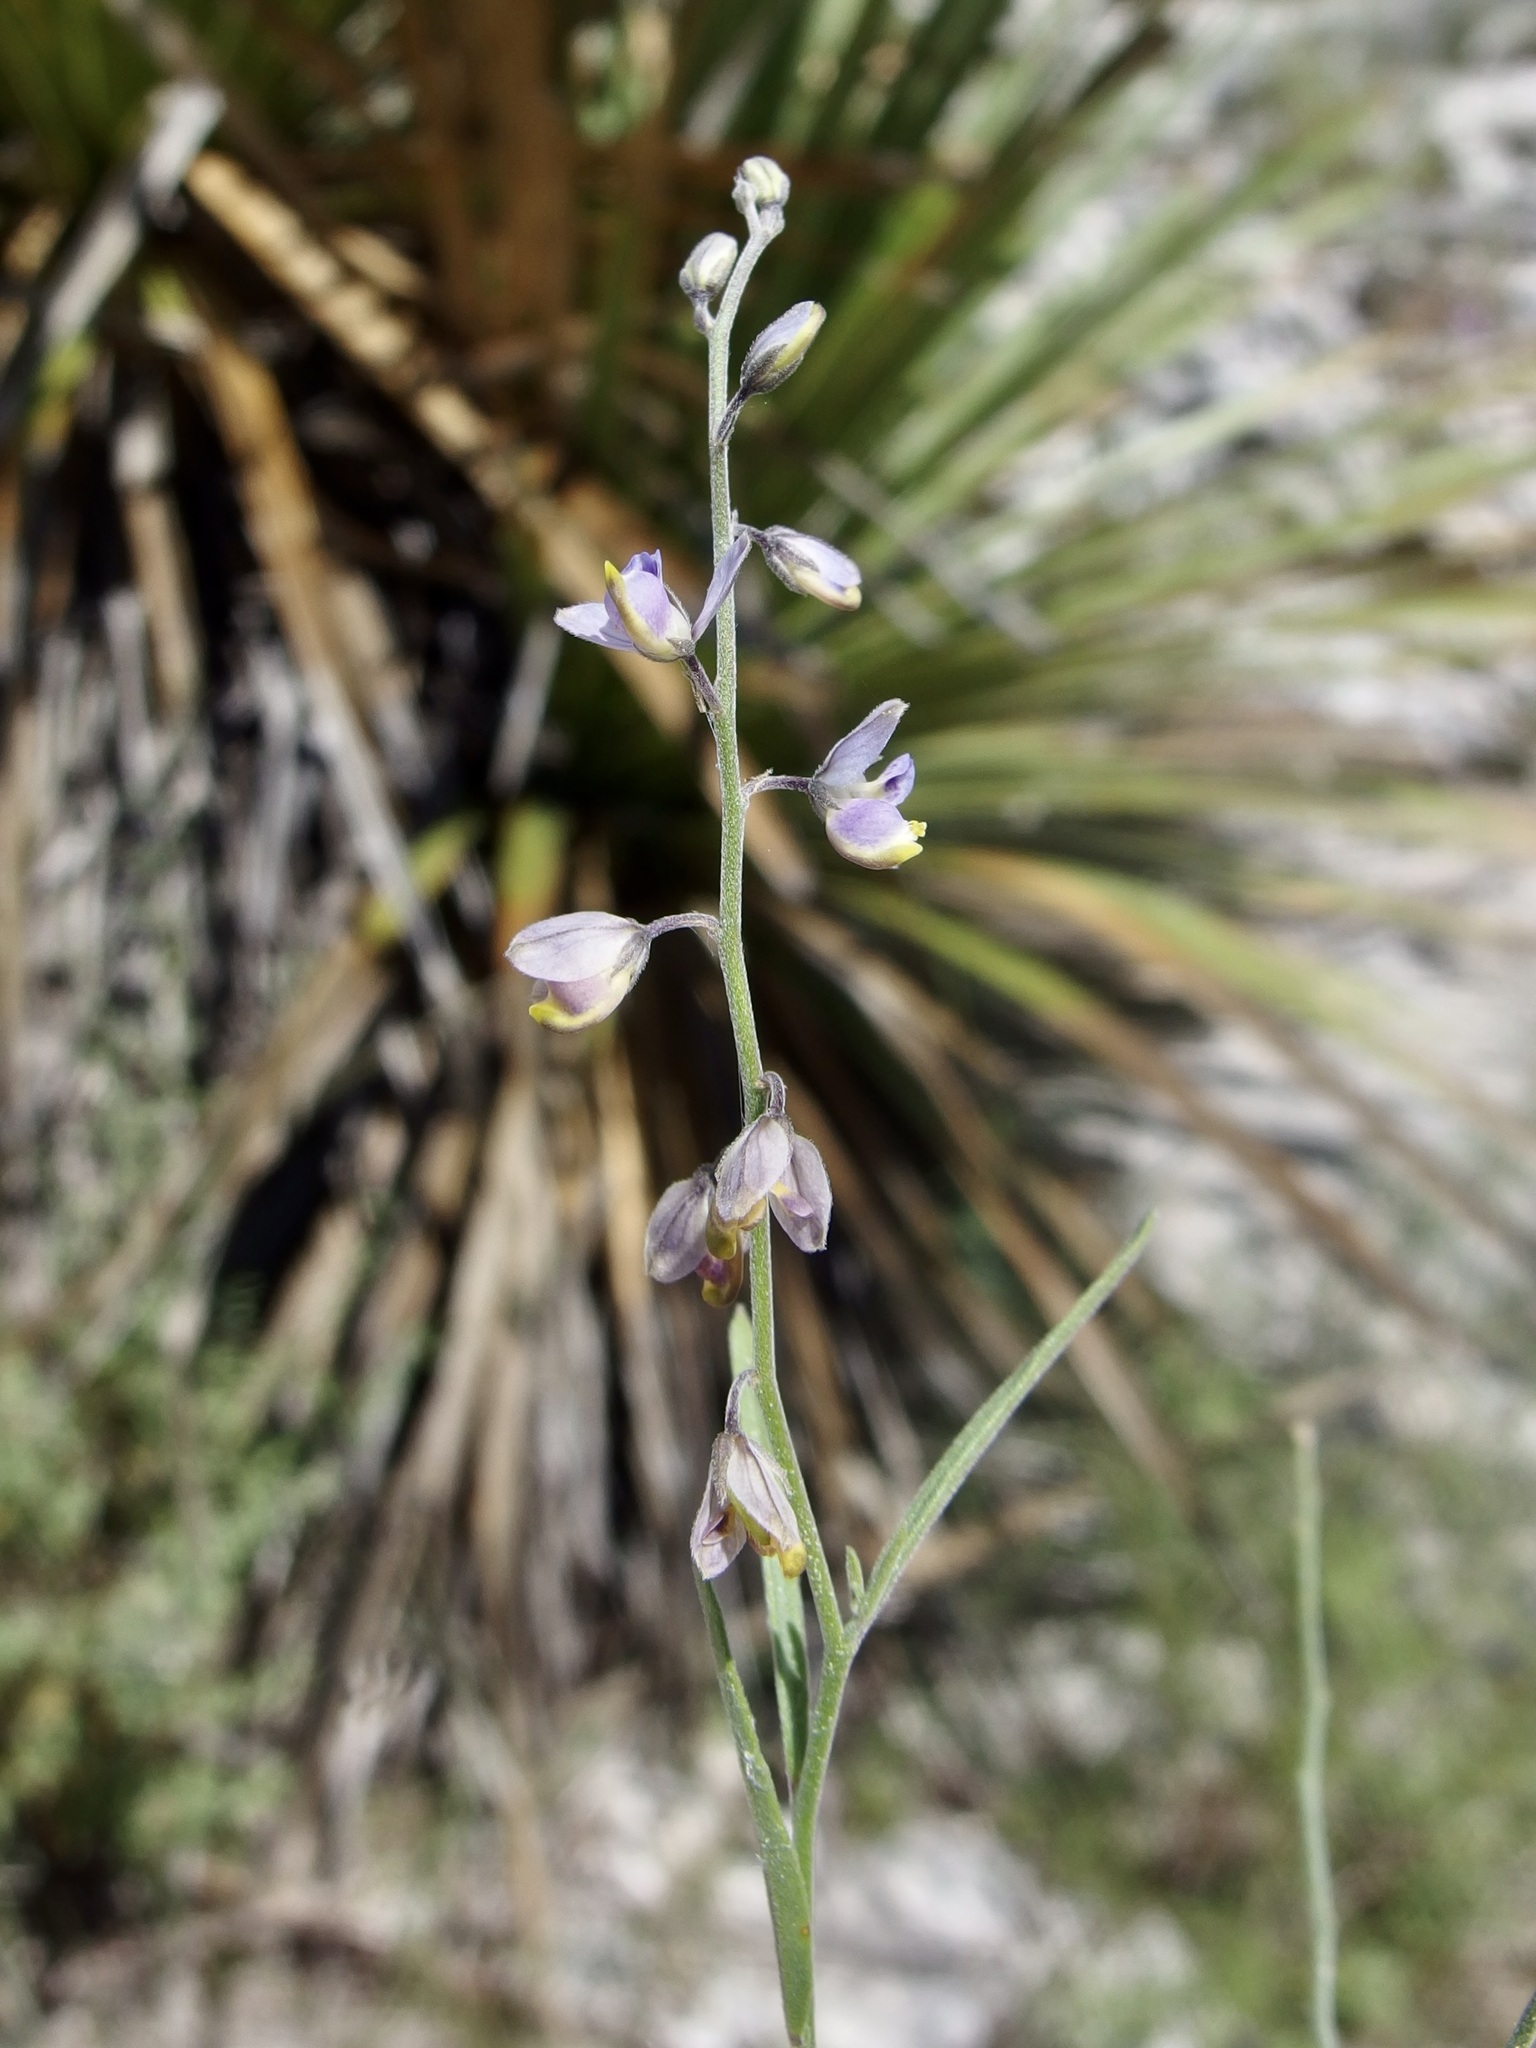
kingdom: Plantae
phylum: Tracheophyta
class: Magnoliopsida
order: Fabales
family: Polygalaceae
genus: Hebecarpa
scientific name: Hebecarpa barbeyana
